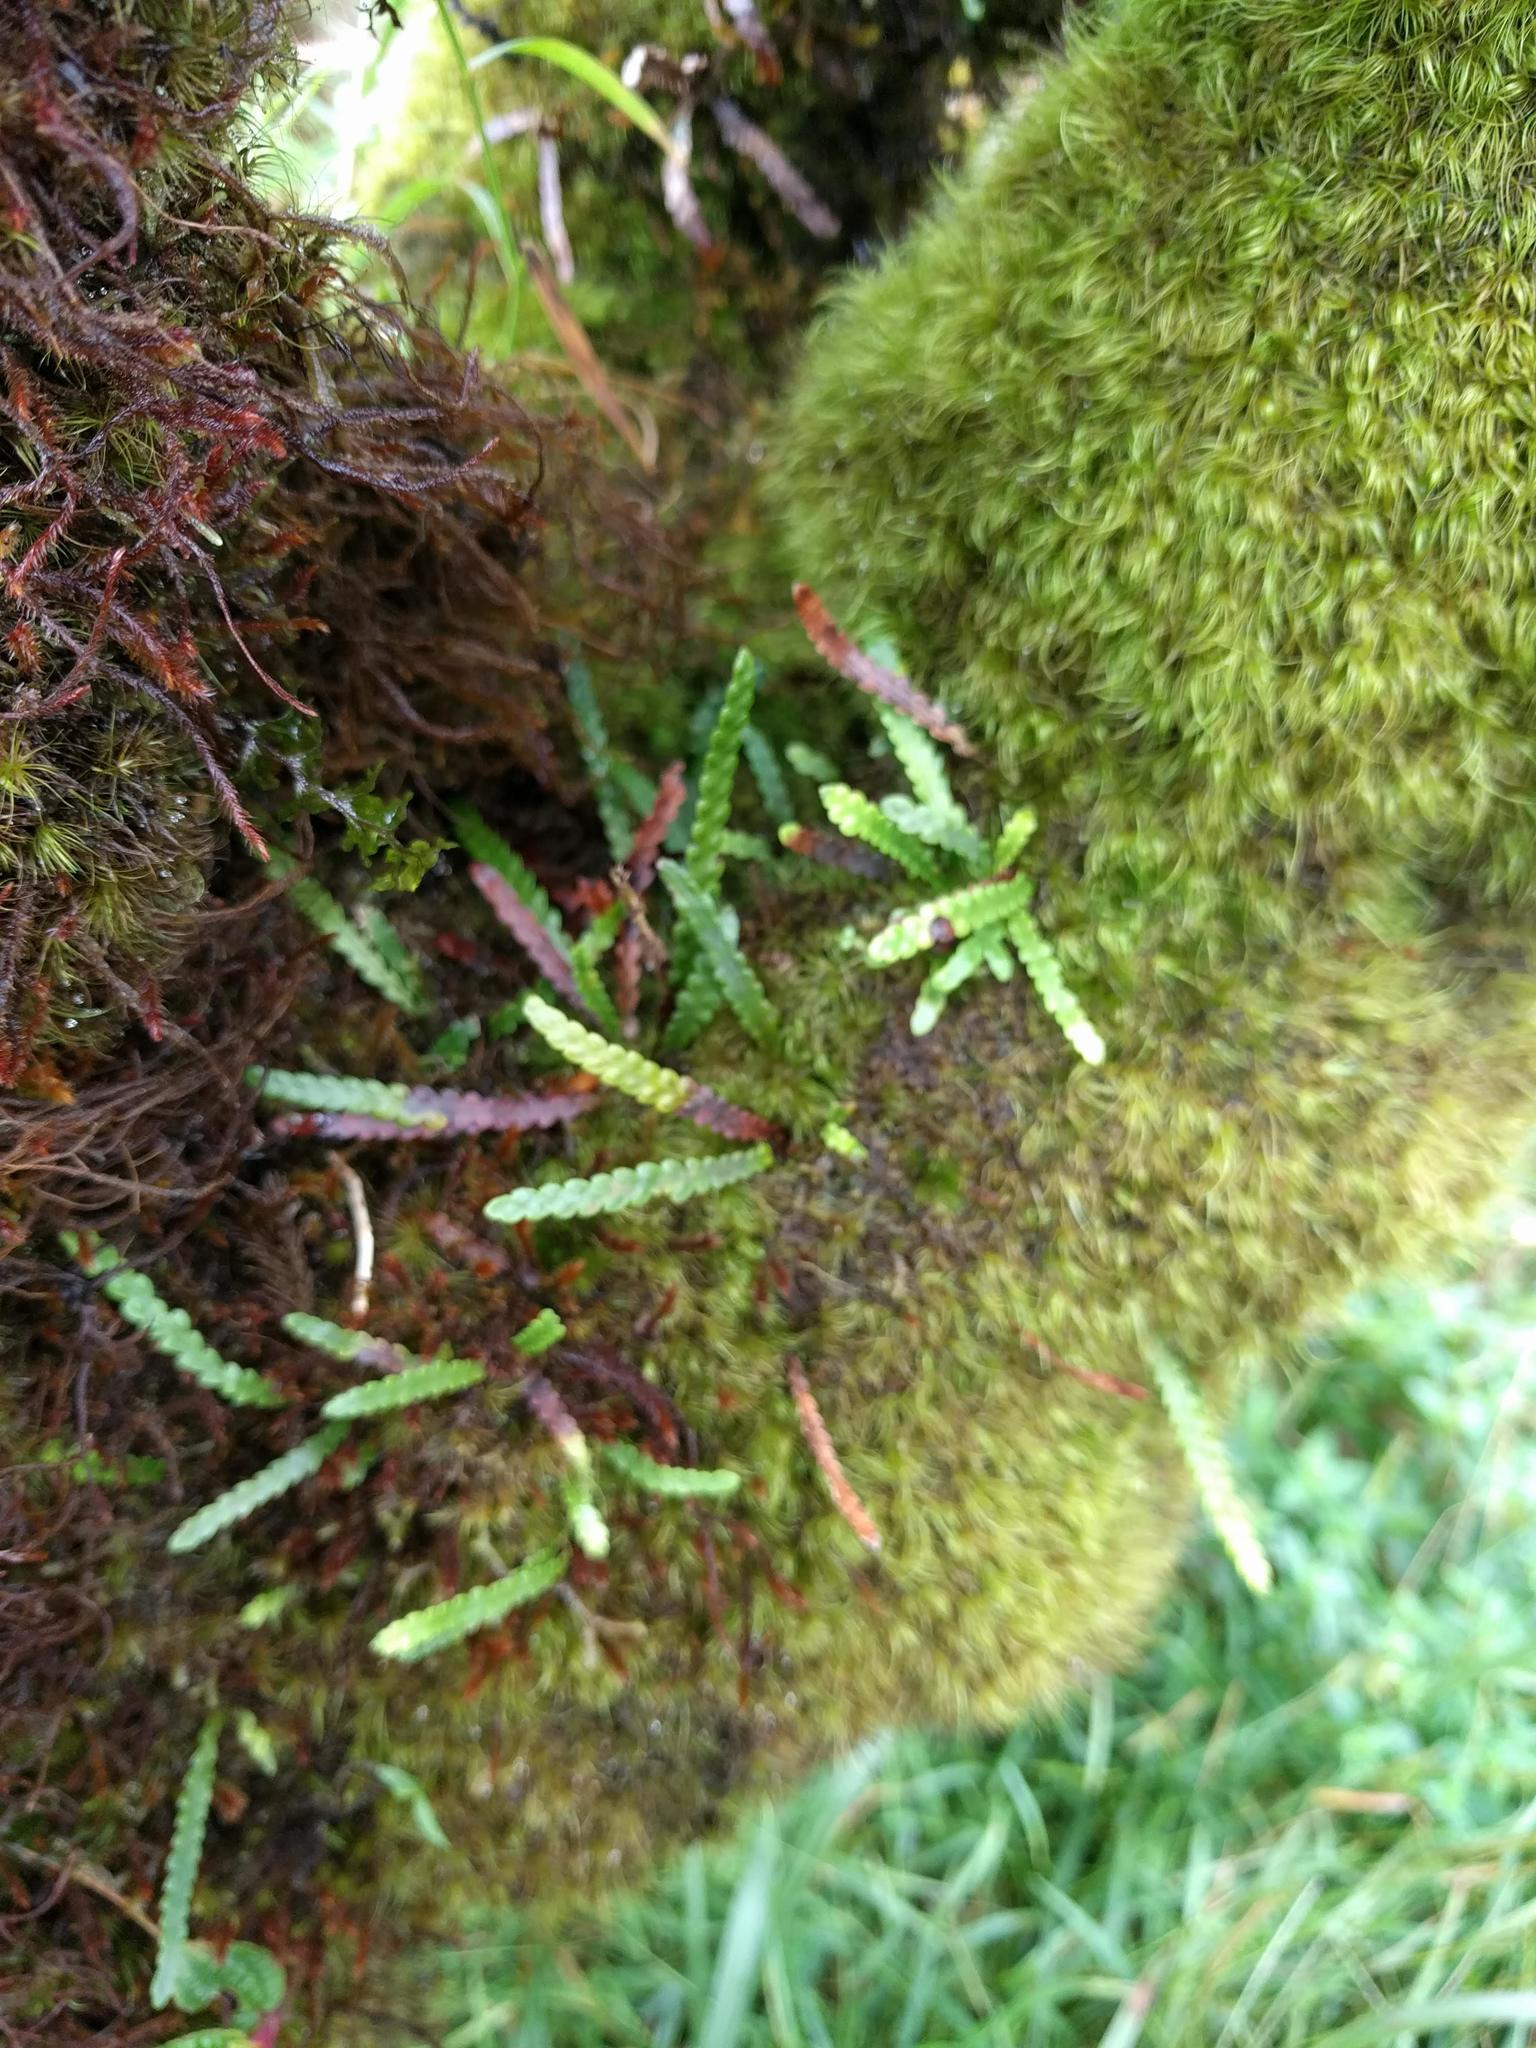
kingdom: Plantae
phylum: Tracheophyta
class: Polypodiopsida
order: Polypodiales
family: Polypodiaceae
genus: Adenophorus
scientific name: Adenophorus haalilioanus
